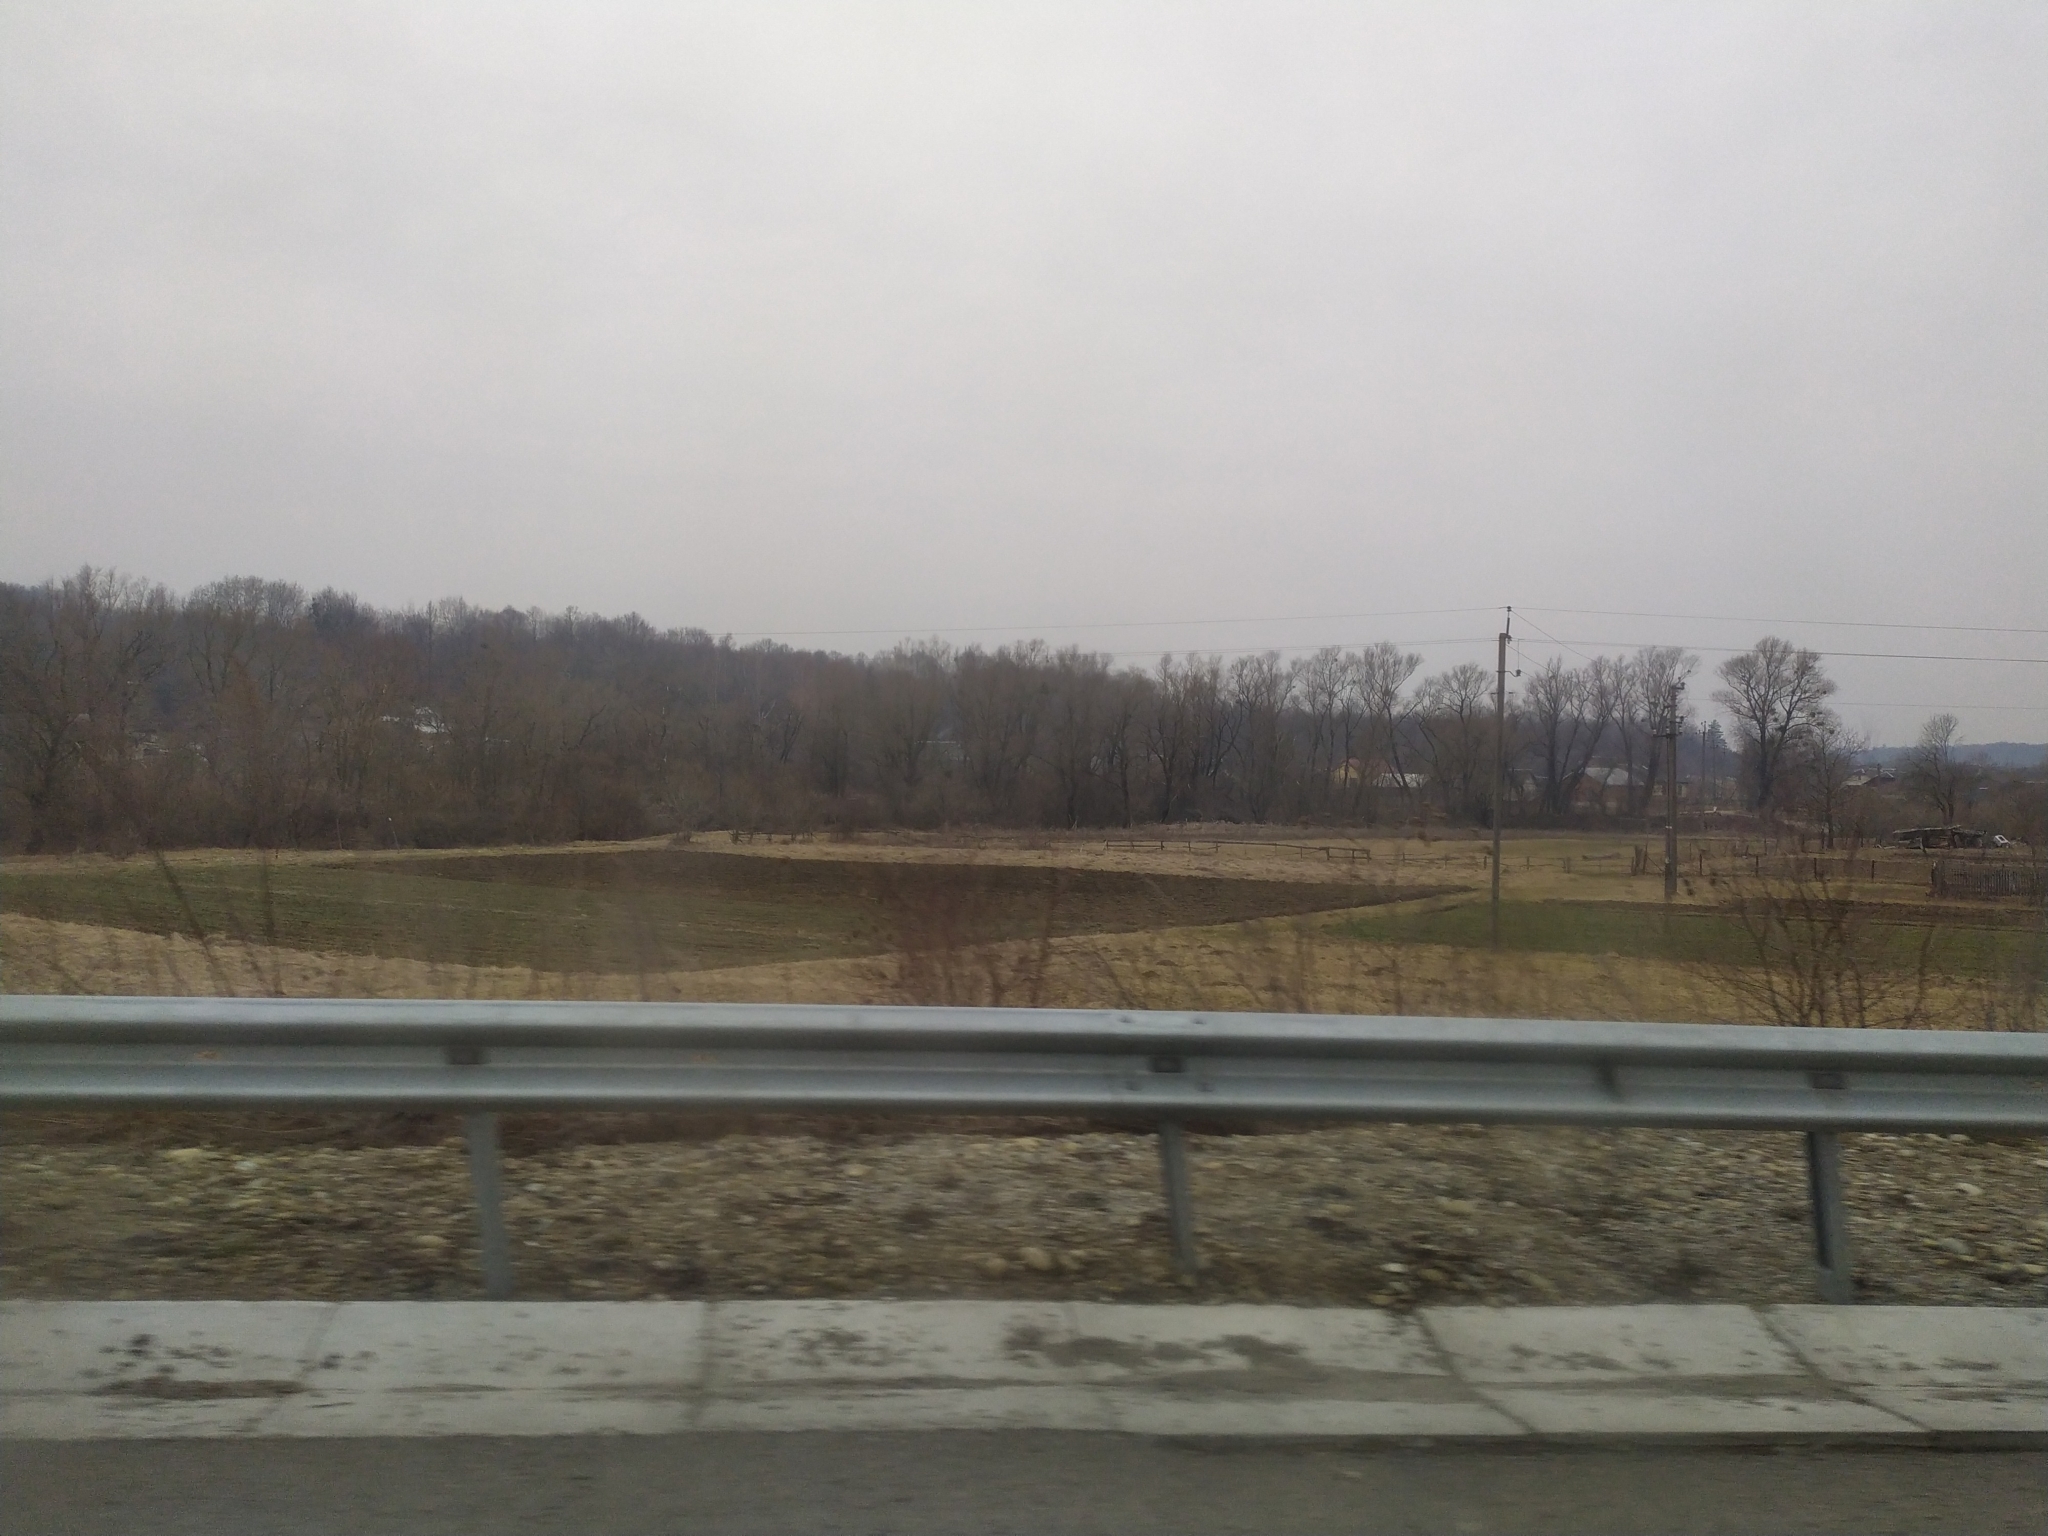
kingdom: Animalia
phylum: Chordata
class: Mammalia
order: Soricomorpha
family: Talpidae
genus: Talpa
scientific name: Talpa europaea
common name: European mole
